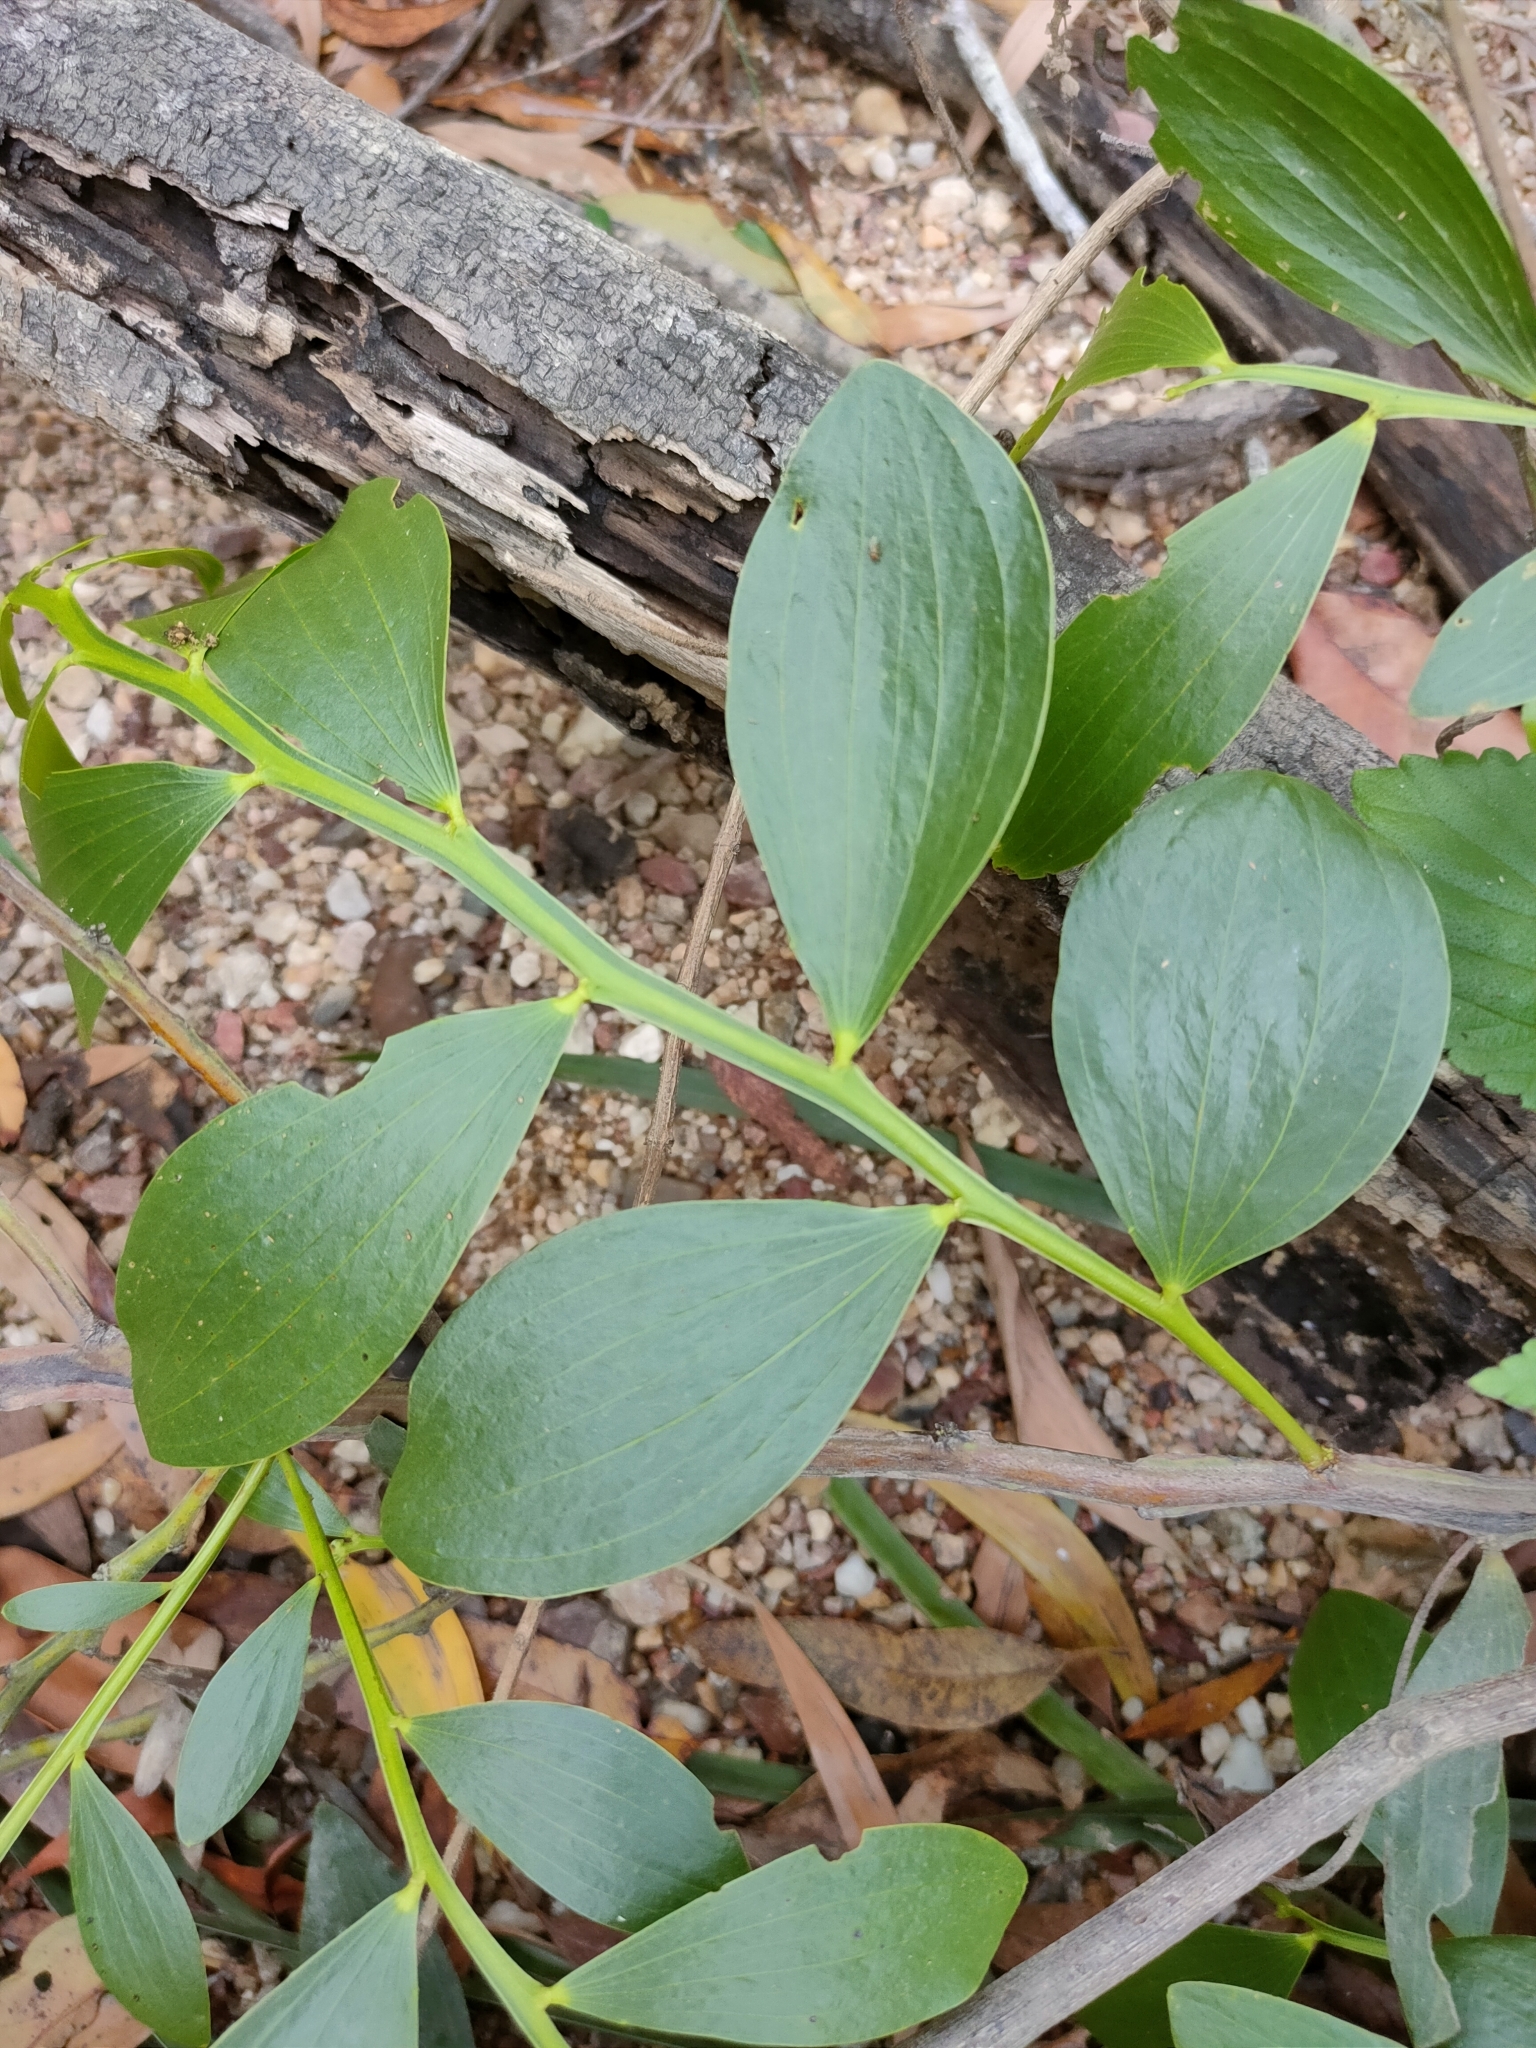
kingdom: Plantae
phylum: Tracheophyta
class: Magnoliopsida
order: Fabales
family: Fabaceae
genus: Acacia
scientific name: Acacia complanata
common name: Flat-stemmed wattle
